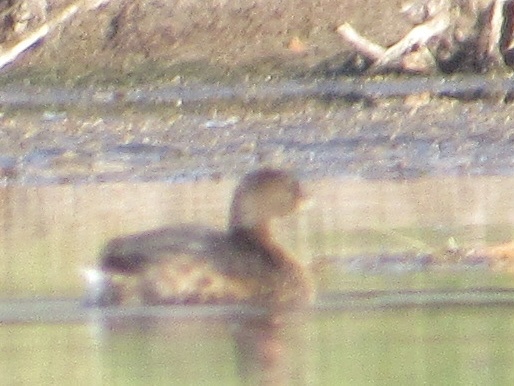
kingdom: Animalia
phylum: Chordata
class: Aves
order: Podicipediformes
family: Podicipedidae
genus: Podilymbus
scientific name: Podilymbus podiceps
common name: Pied-billed grebe
